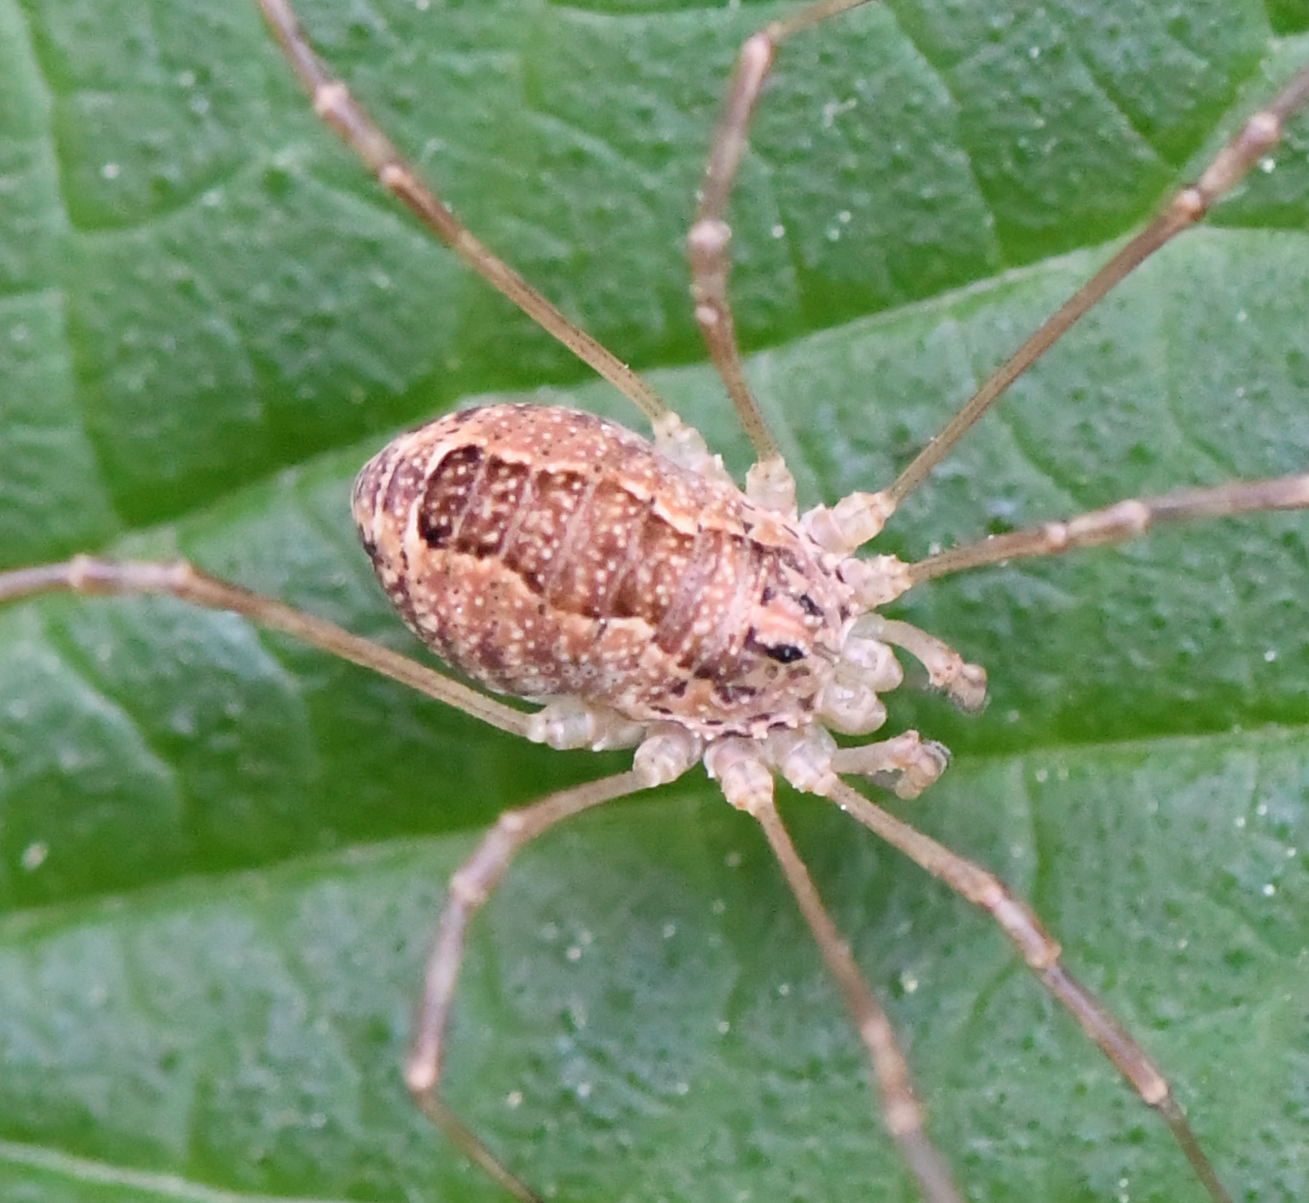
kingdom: Animalia
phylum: Arthropoda
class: Arachnida
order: Opiliones
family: Phalangiidae
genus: Rilaena
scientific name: Rilaena triangularis
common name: Spring harvestman
